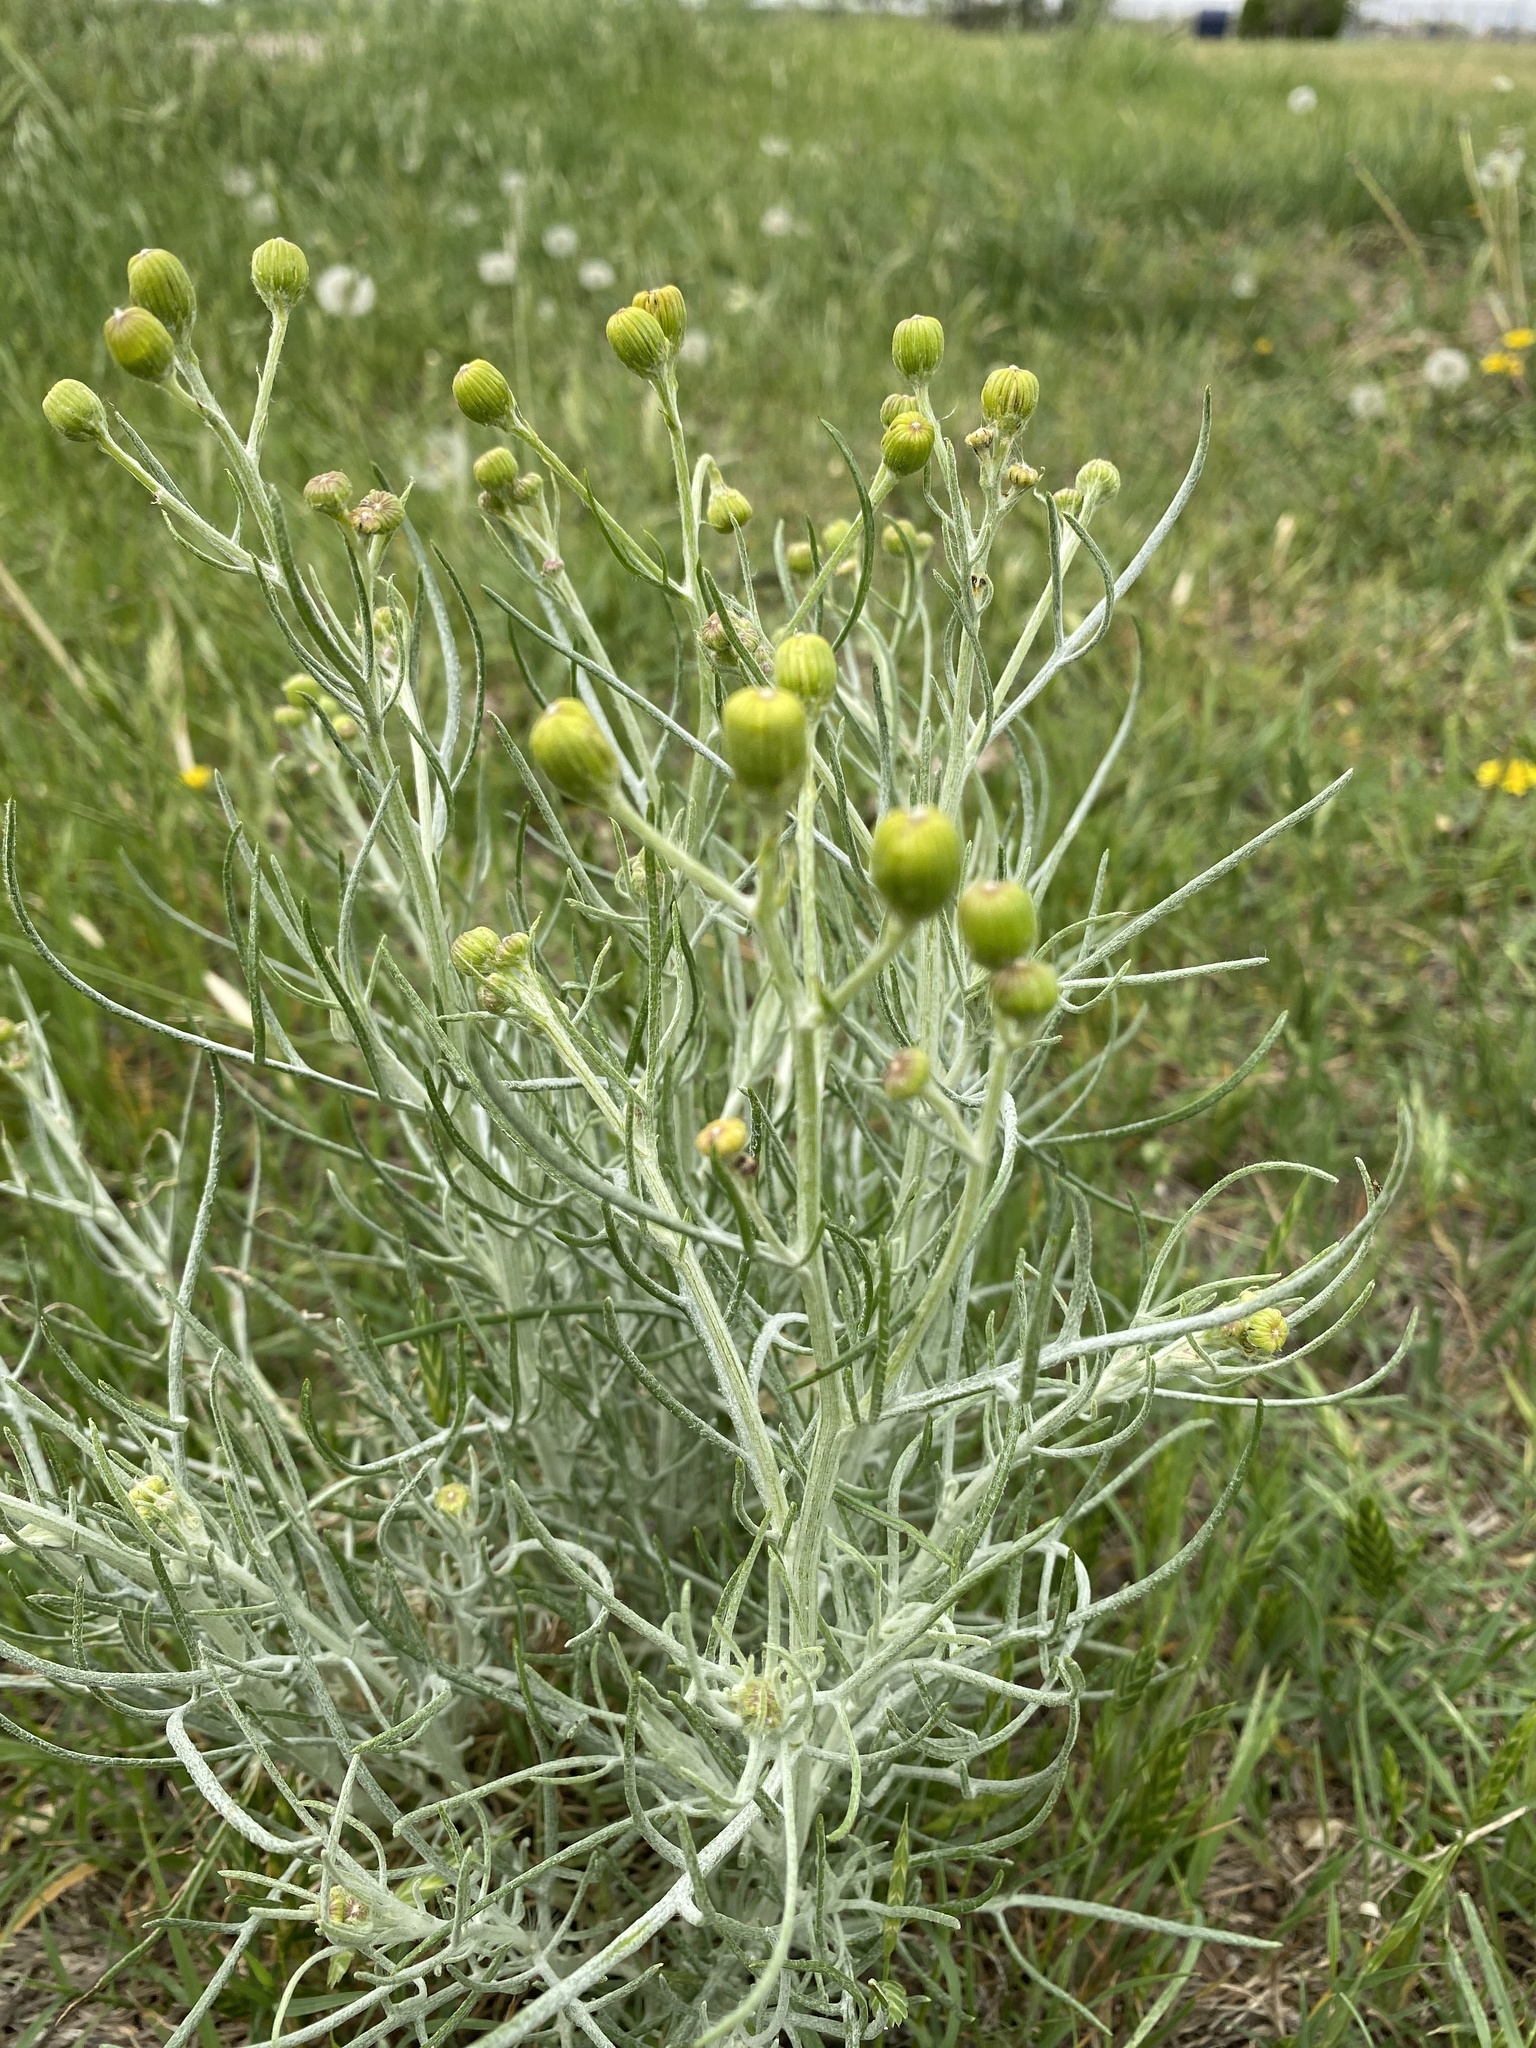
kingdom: Plantae
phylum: Tracheophyta
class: Magnoliopsida
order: Asterales
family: Asteraceae
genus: Senecio
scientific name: Senecio flaccidus
